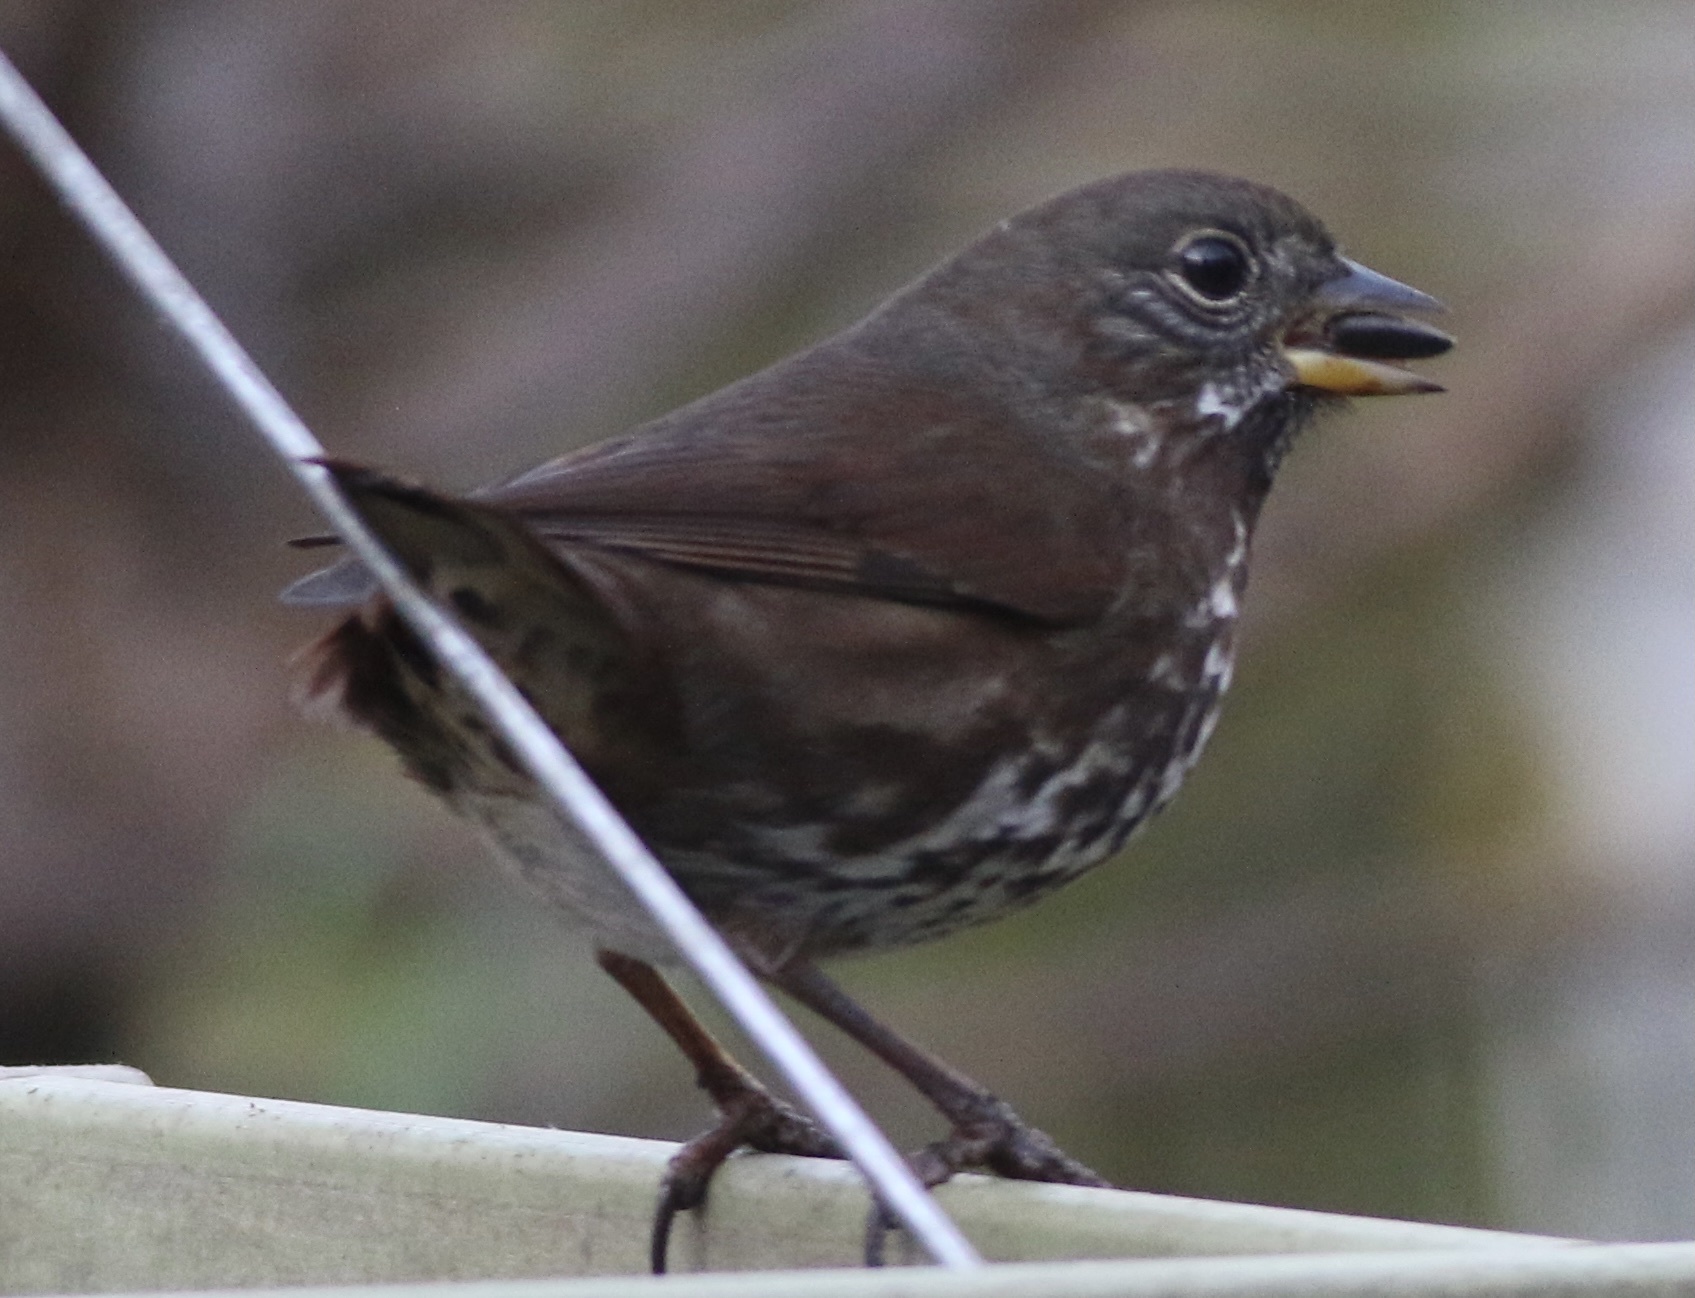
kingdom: Animalia
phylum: Chordata
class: Aves
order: Passeriformes
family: Passerellidae
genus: Passerella
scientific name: Passerella iliaca
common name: Fox sparrow
